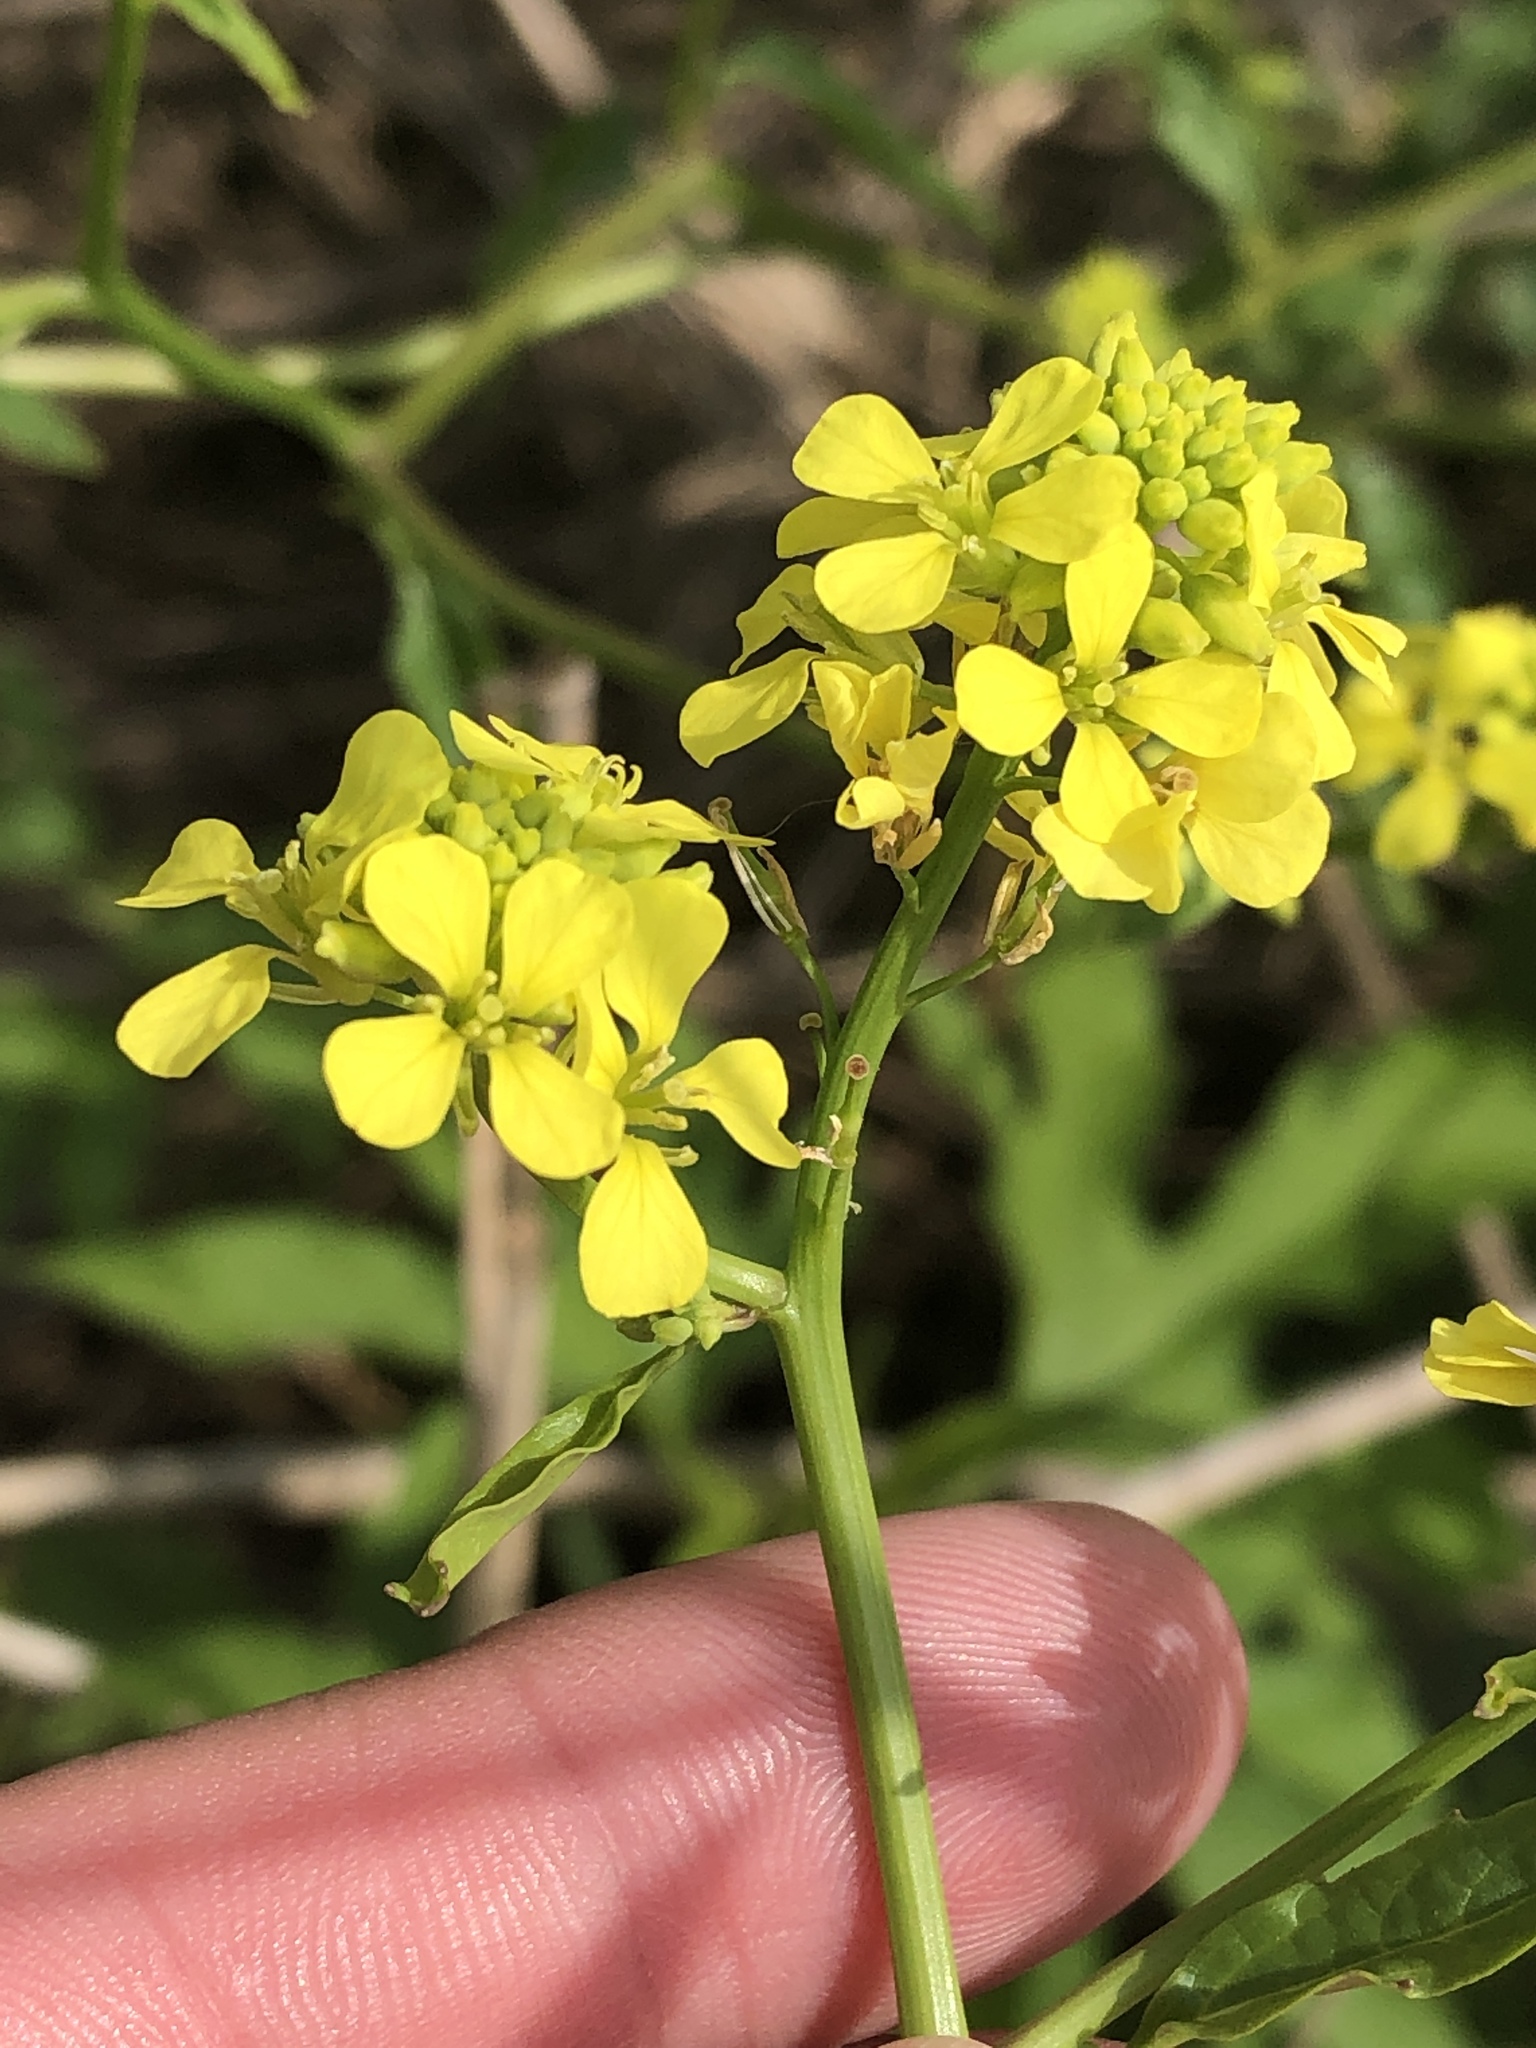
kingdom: Plantae
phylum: Tracheophyta
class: Magnoliopsida
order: Brassicales
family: Brassicaceae
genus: Rapistrum
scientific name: Rapistrum rugosum
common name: Annual bastardcabbage
